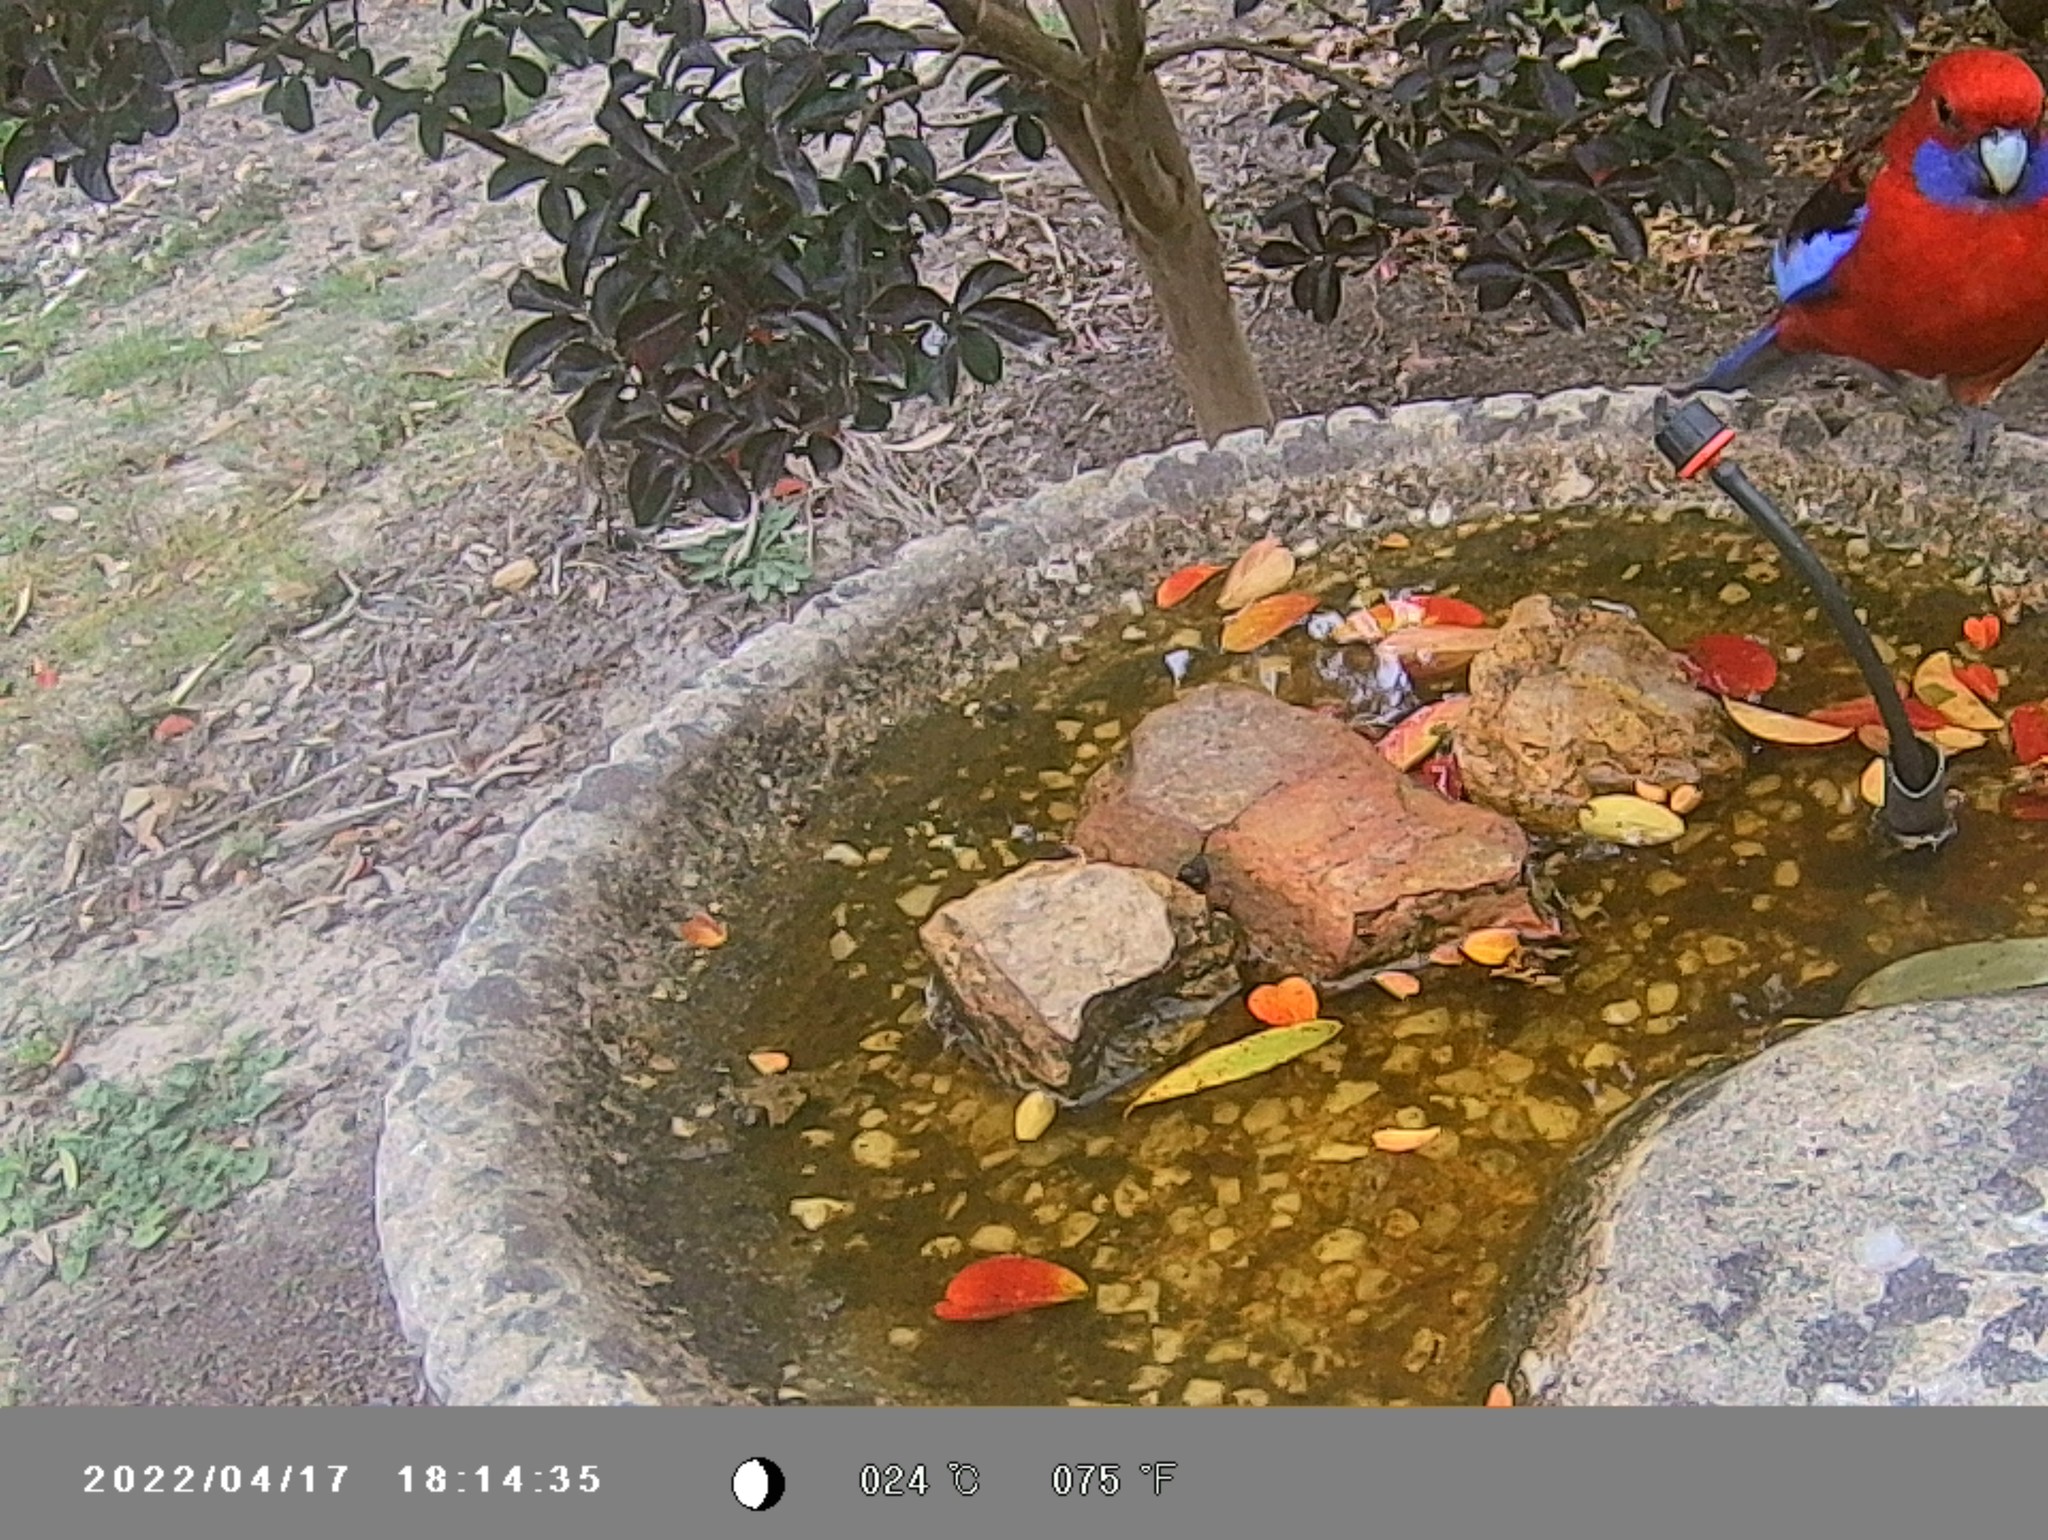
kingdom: Animalia
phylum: Chordata
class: Aves
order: Psittaciformes
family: Psittacidae
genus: Platycercus
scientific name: Platycercus elegans
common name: Crimson rosella
